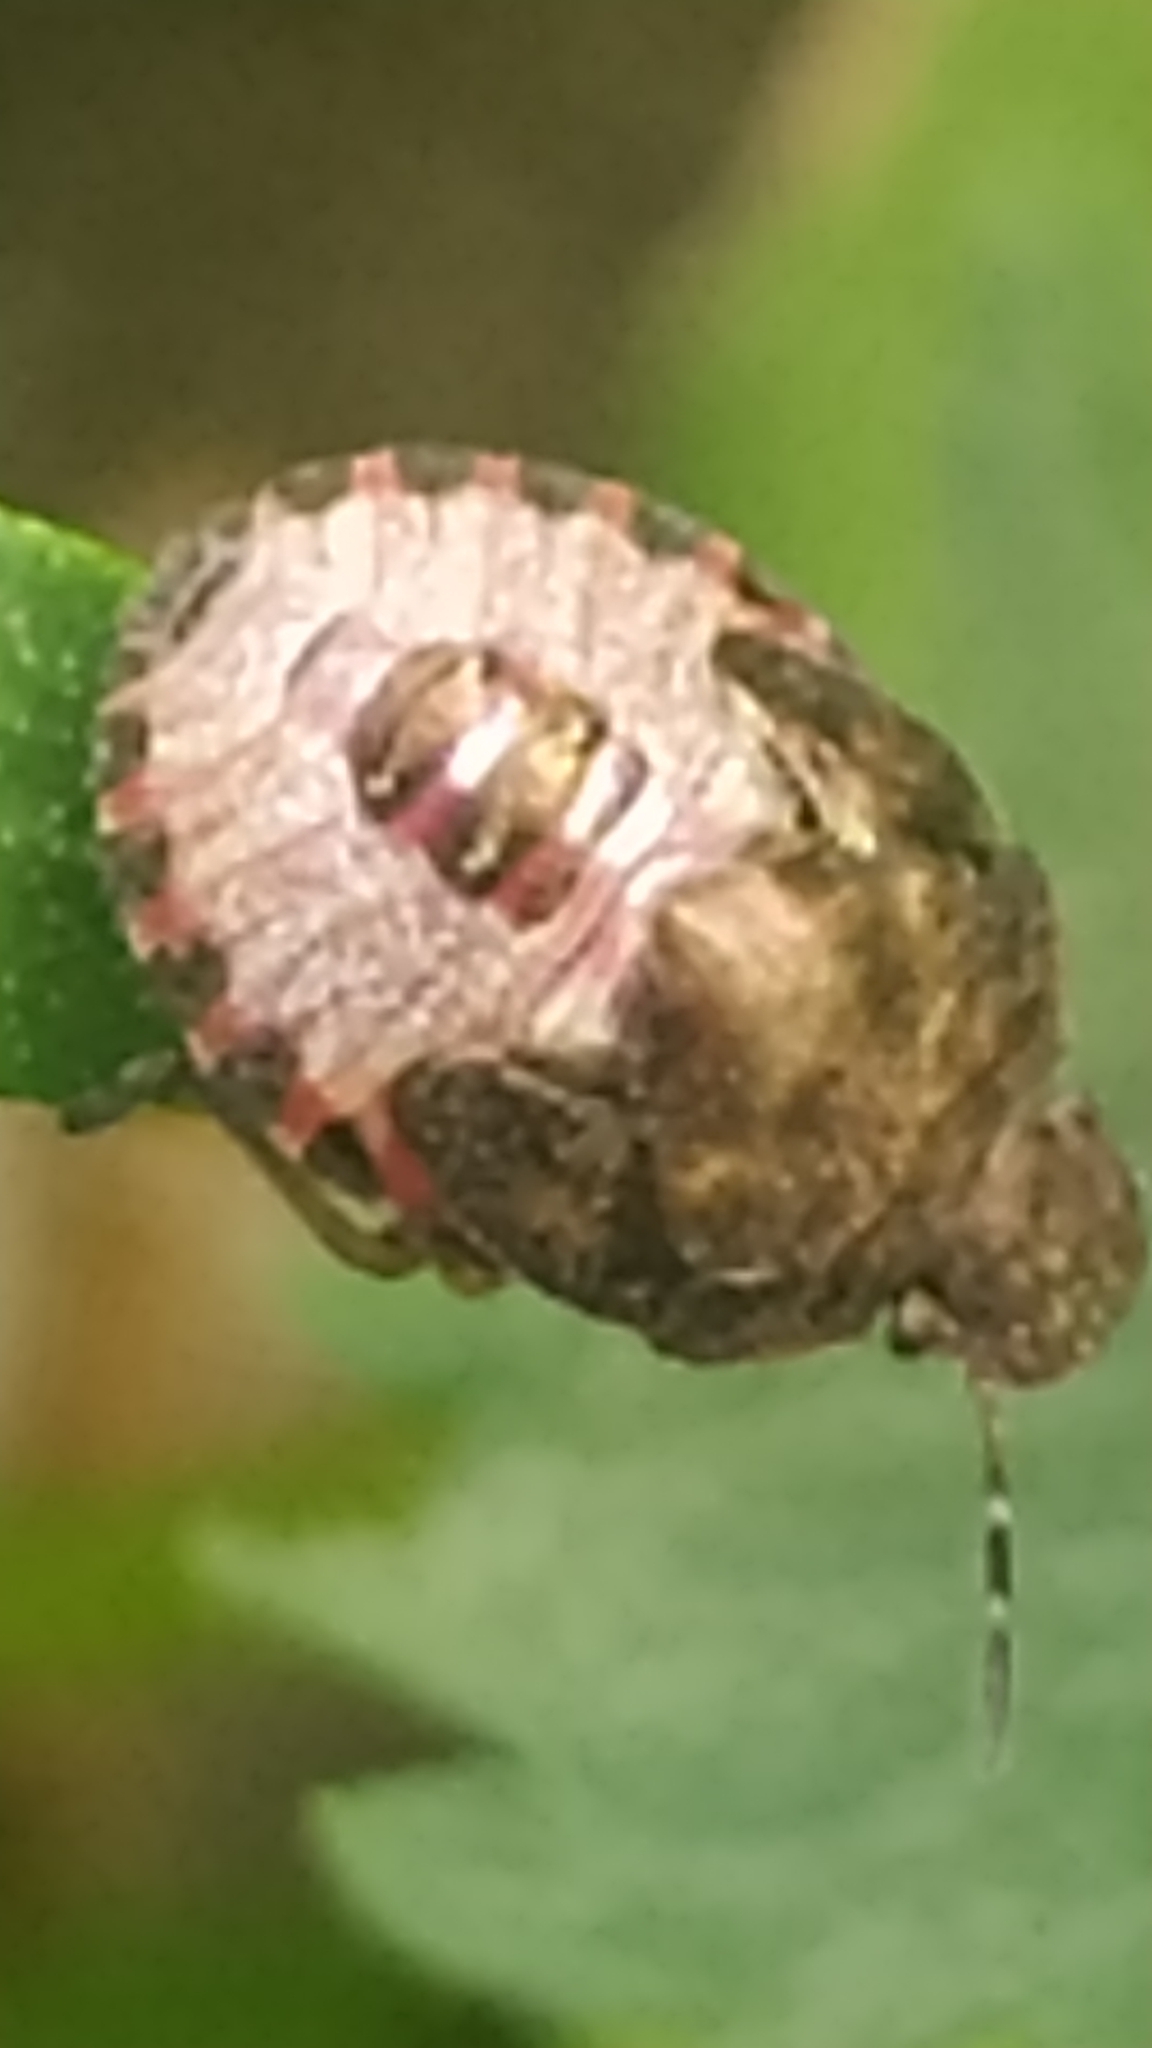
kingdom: Animalia
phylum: Arthropoda
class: Insecta
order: Hemiptera
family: Pentatomidae
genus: Holcostethus
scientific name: Holcostethus strictus
